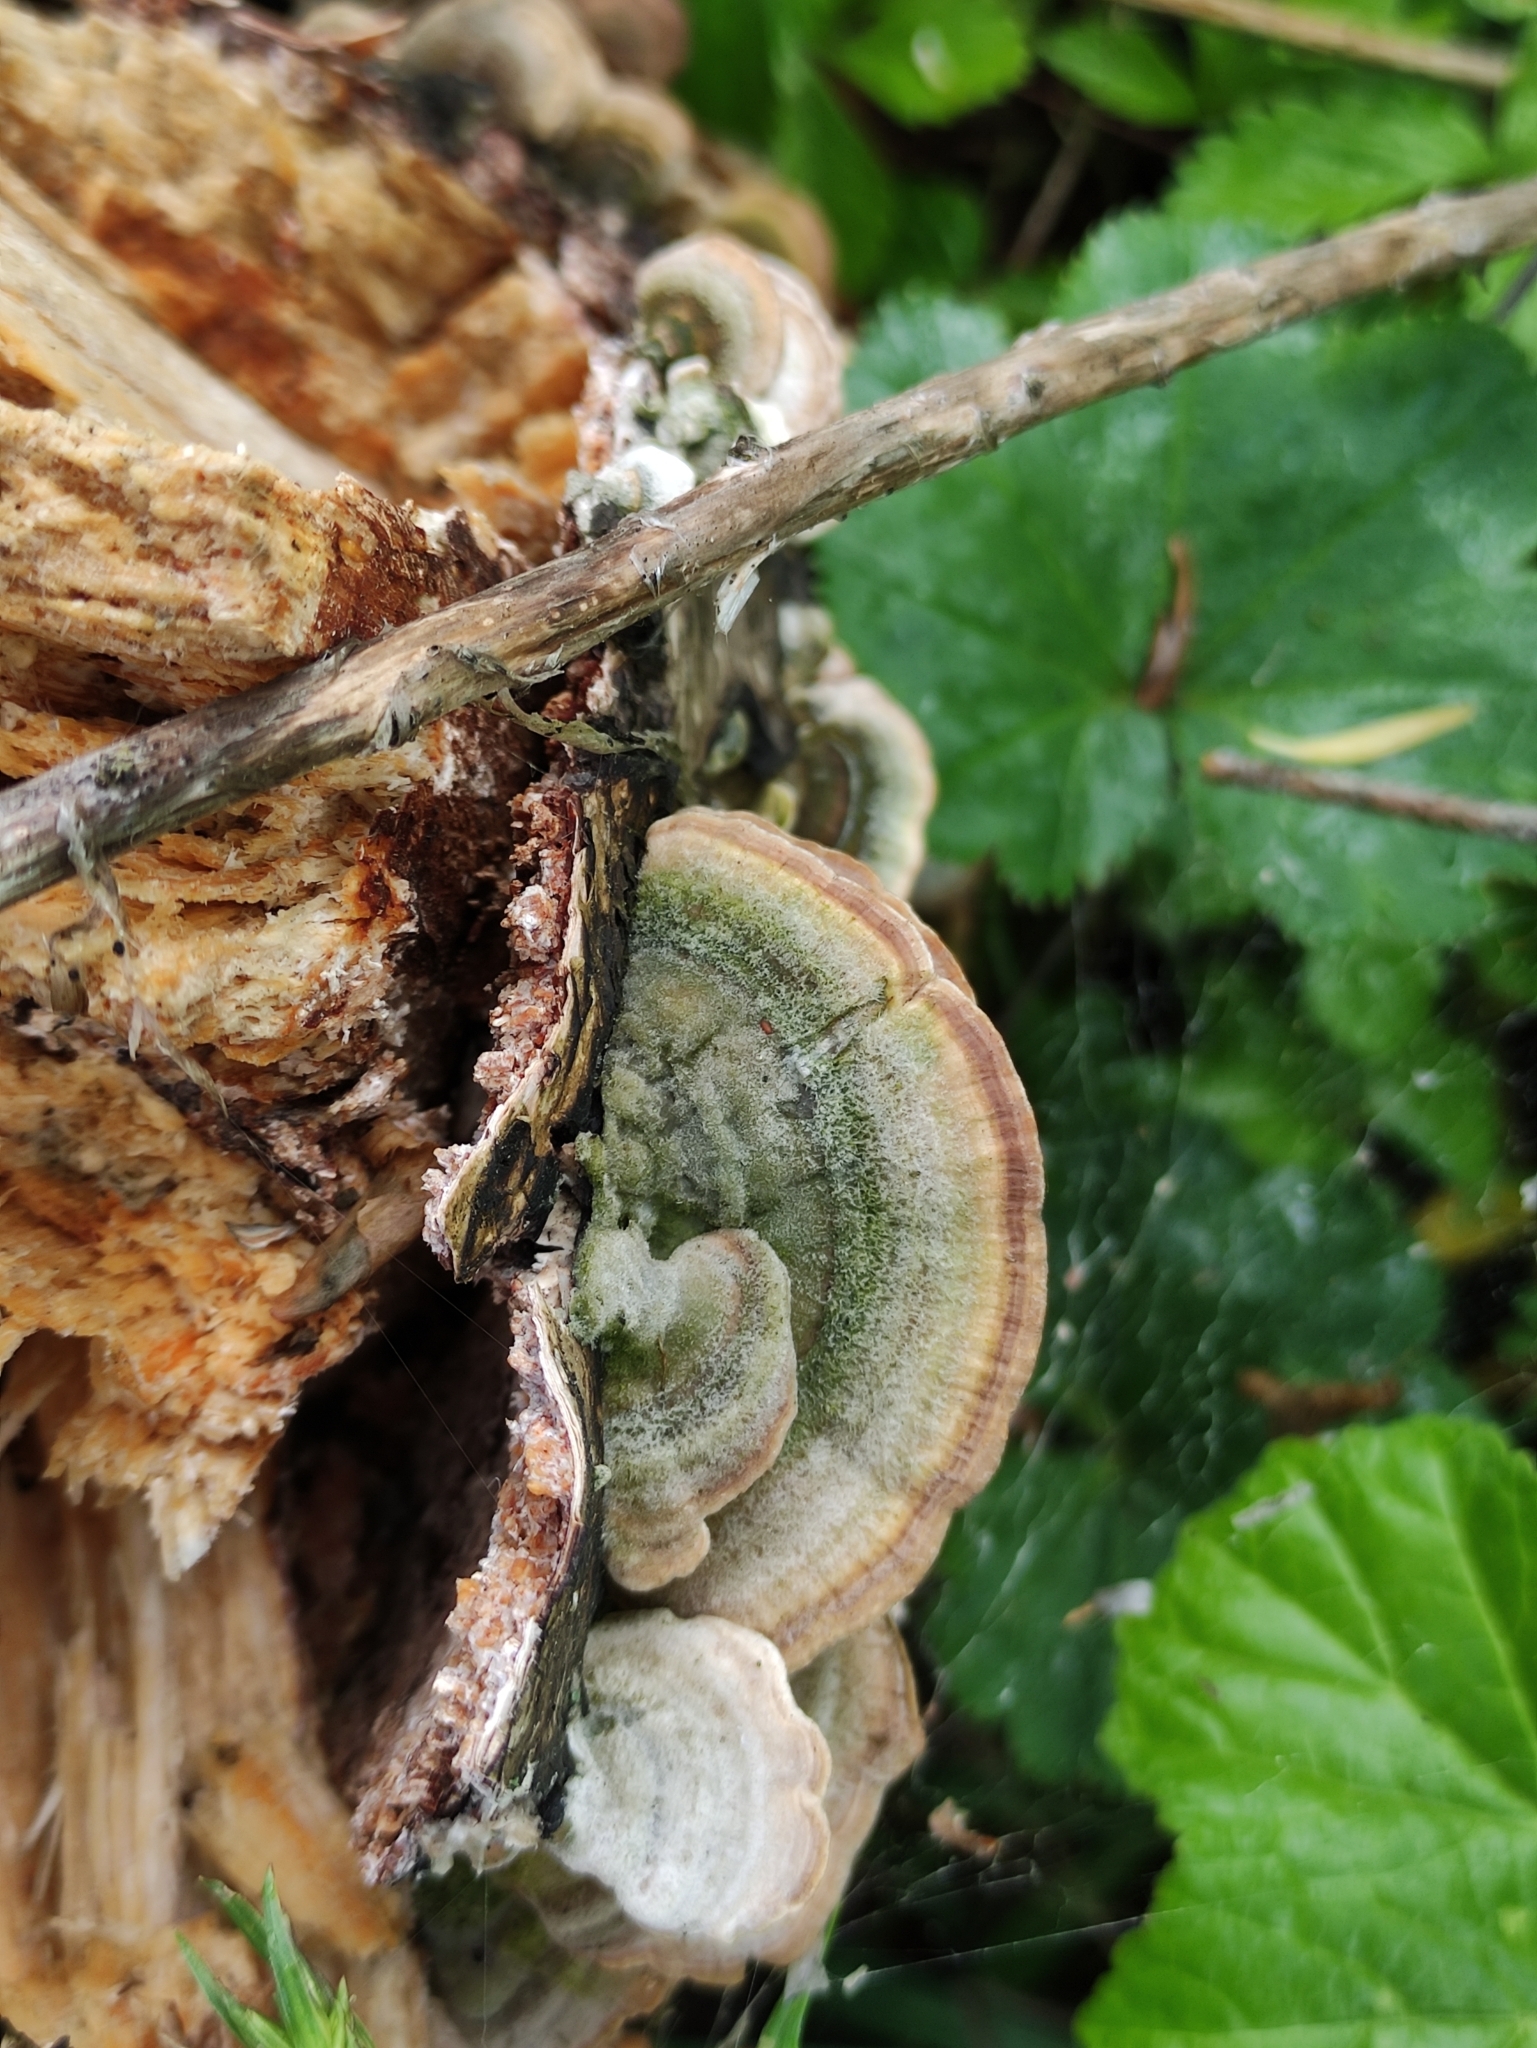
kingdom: Fungi
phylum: Basidiomycota
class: Agaricomycetes
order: Polyporales
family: Polyporaceae
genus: Trametes
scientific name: Trametes hirsuta
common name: Hairy bracket
